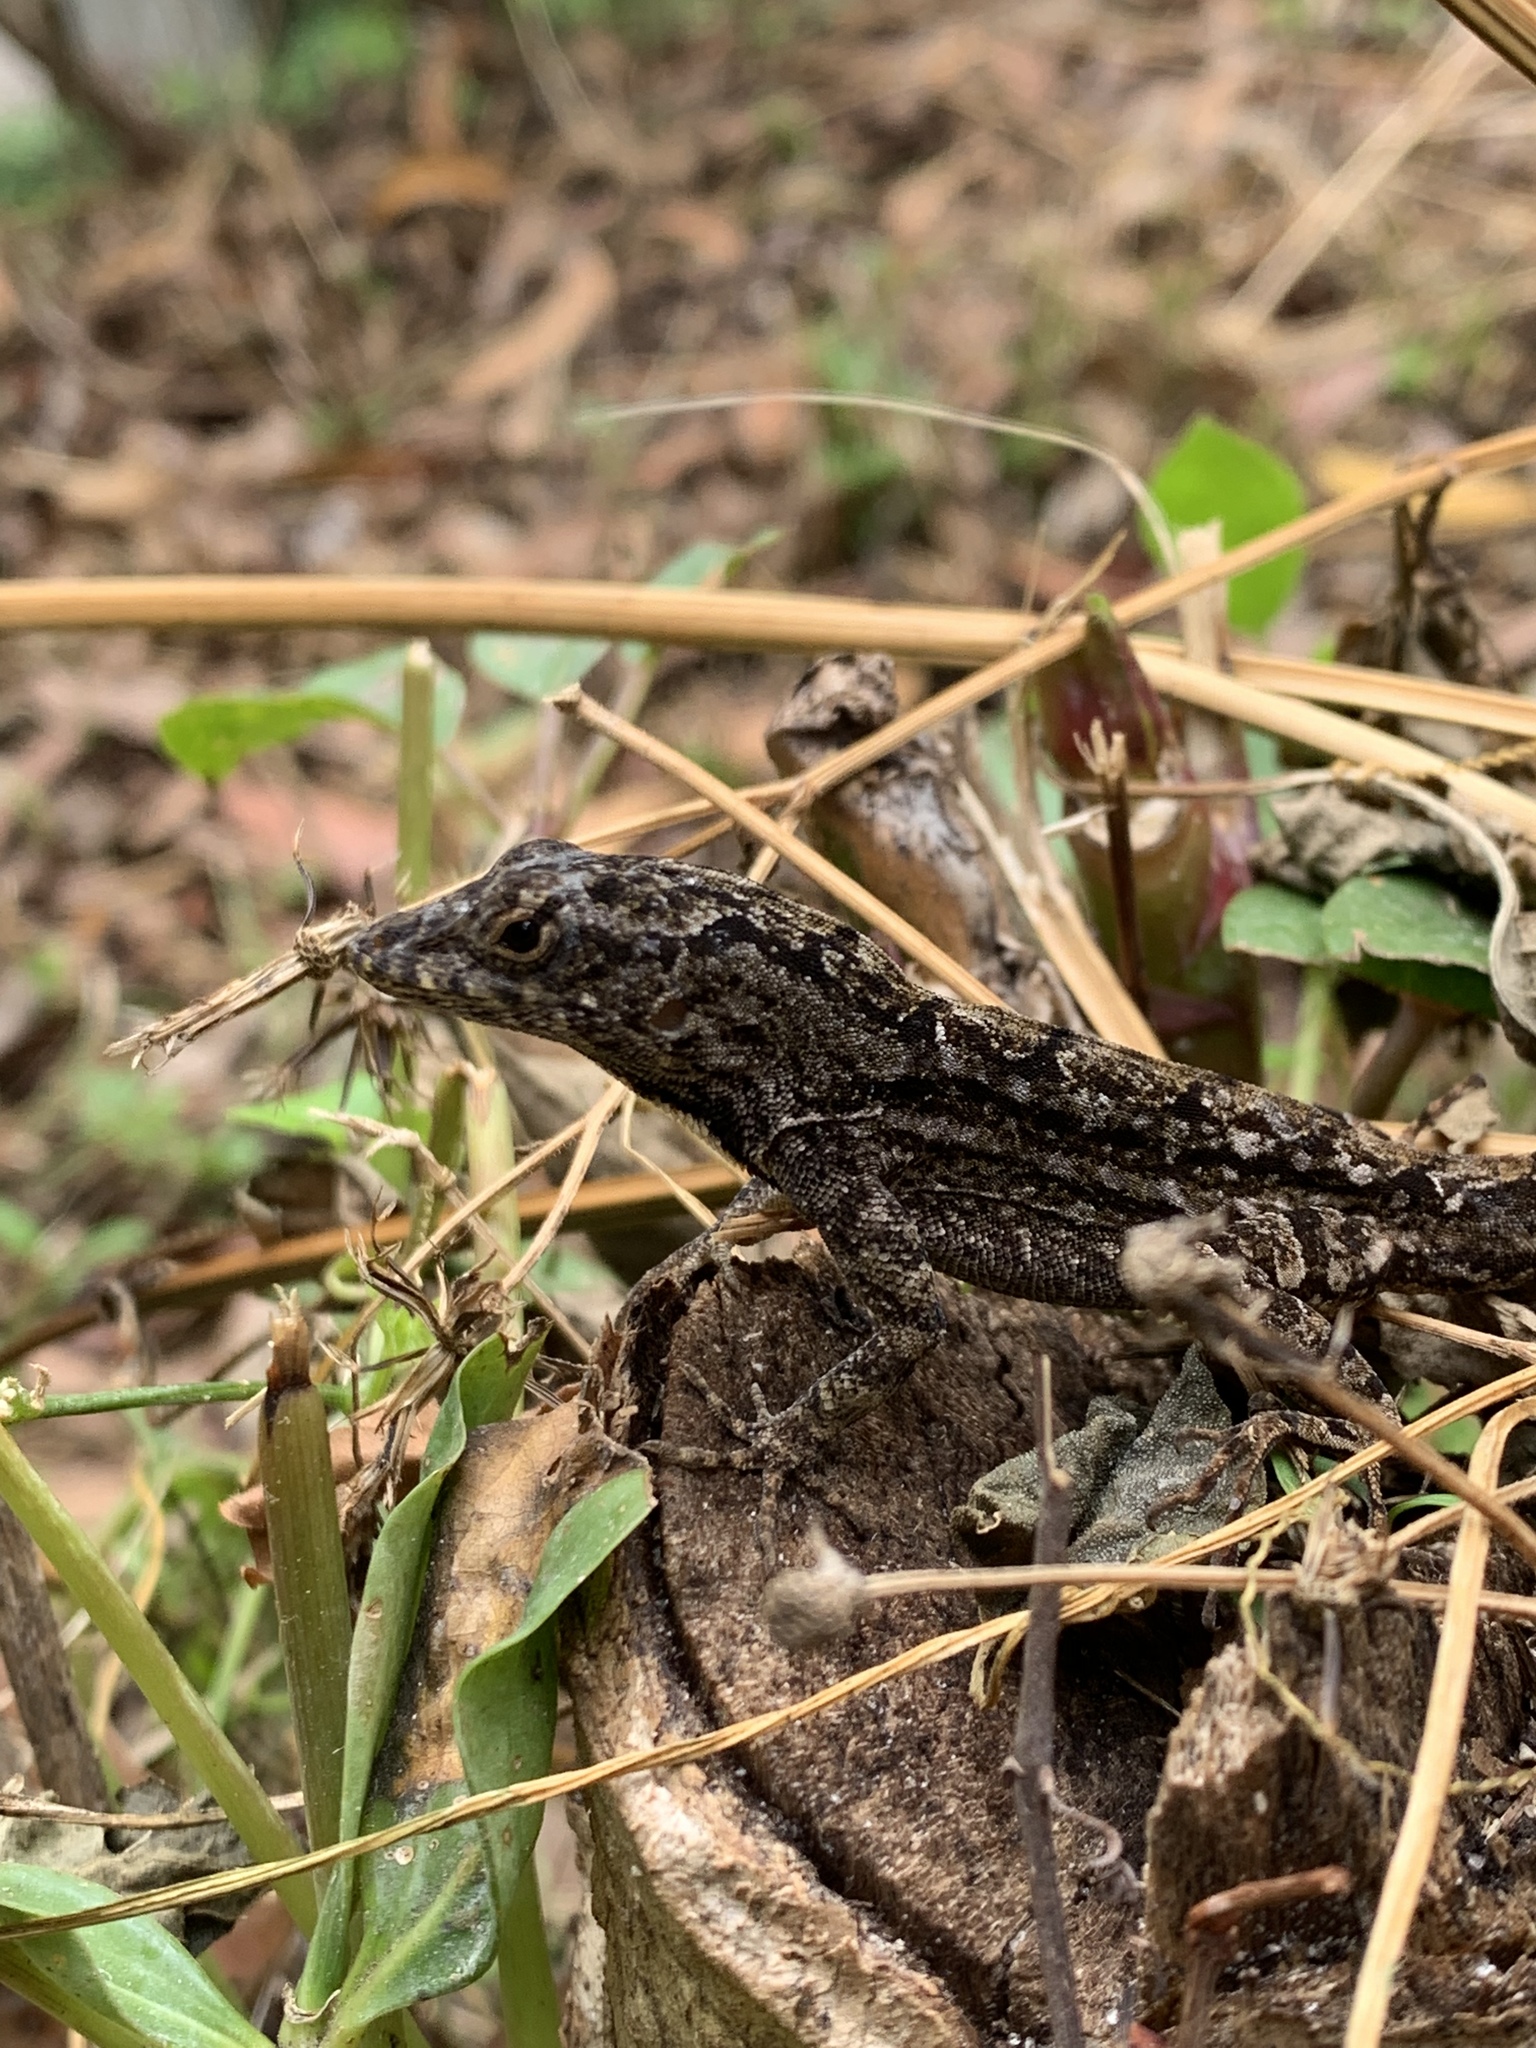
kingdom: Animalia
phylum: Chordata
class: Squamata
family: Dactyloidae
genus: Anolis
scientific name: Anolis sagrei
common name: Brown anole
